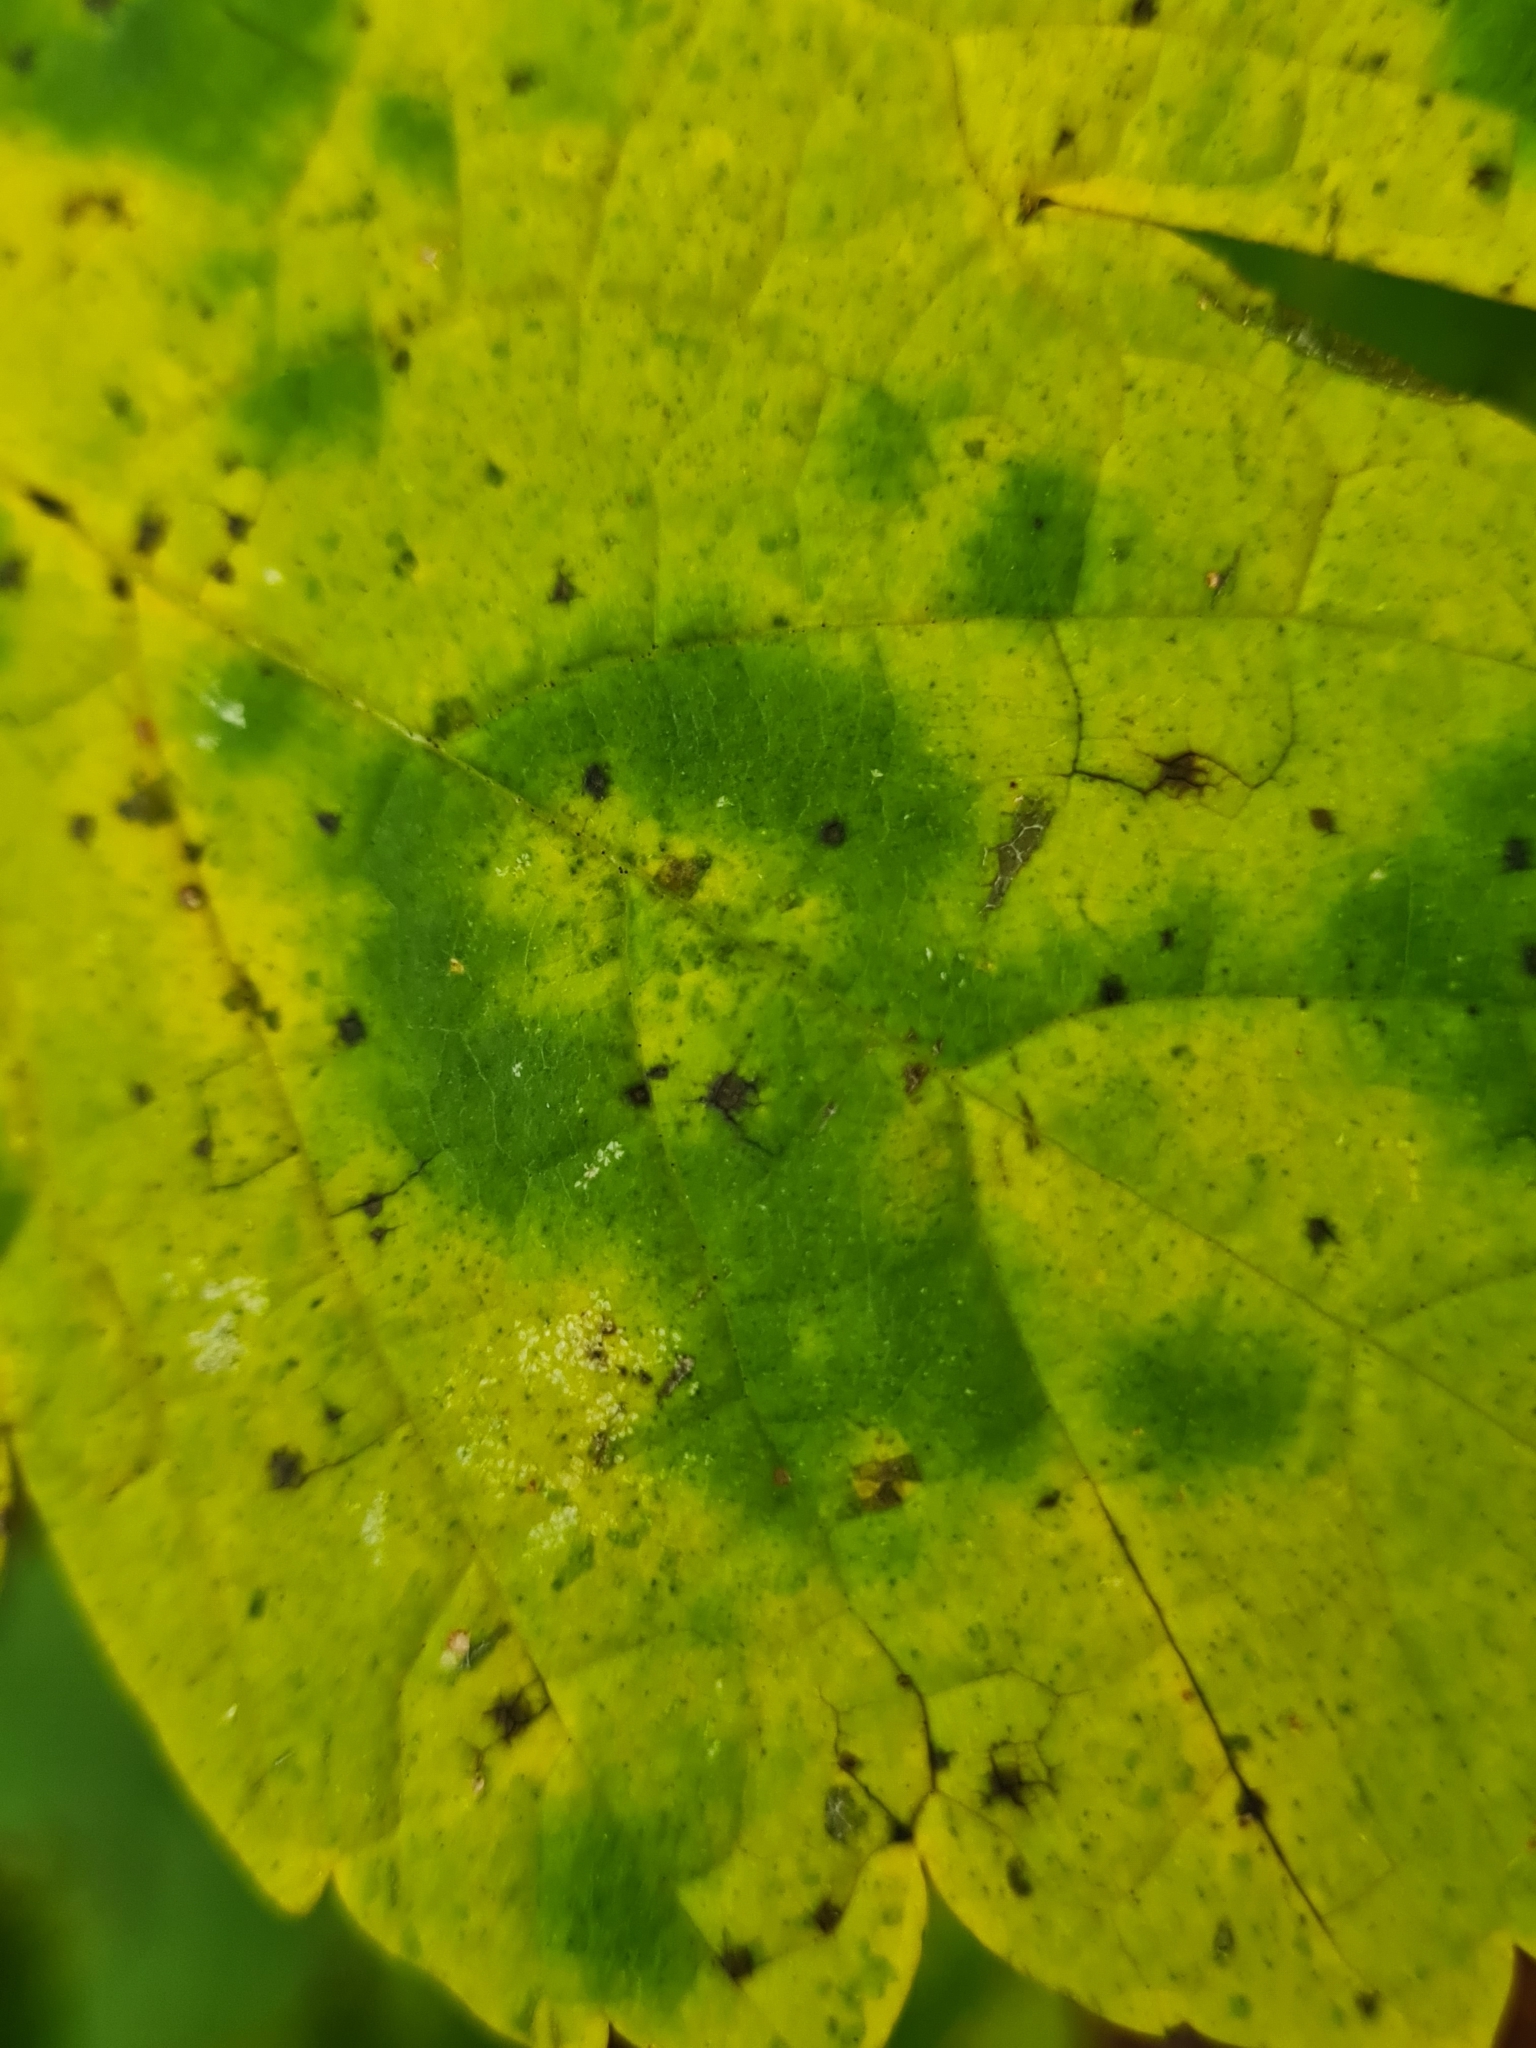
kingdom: Plantae
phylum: Tracheophyta
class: Magnoliopsida
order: Sapindales
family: Sapindaceae
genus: Acer
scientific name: Acer pseudoplatanus
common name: Sycamore
